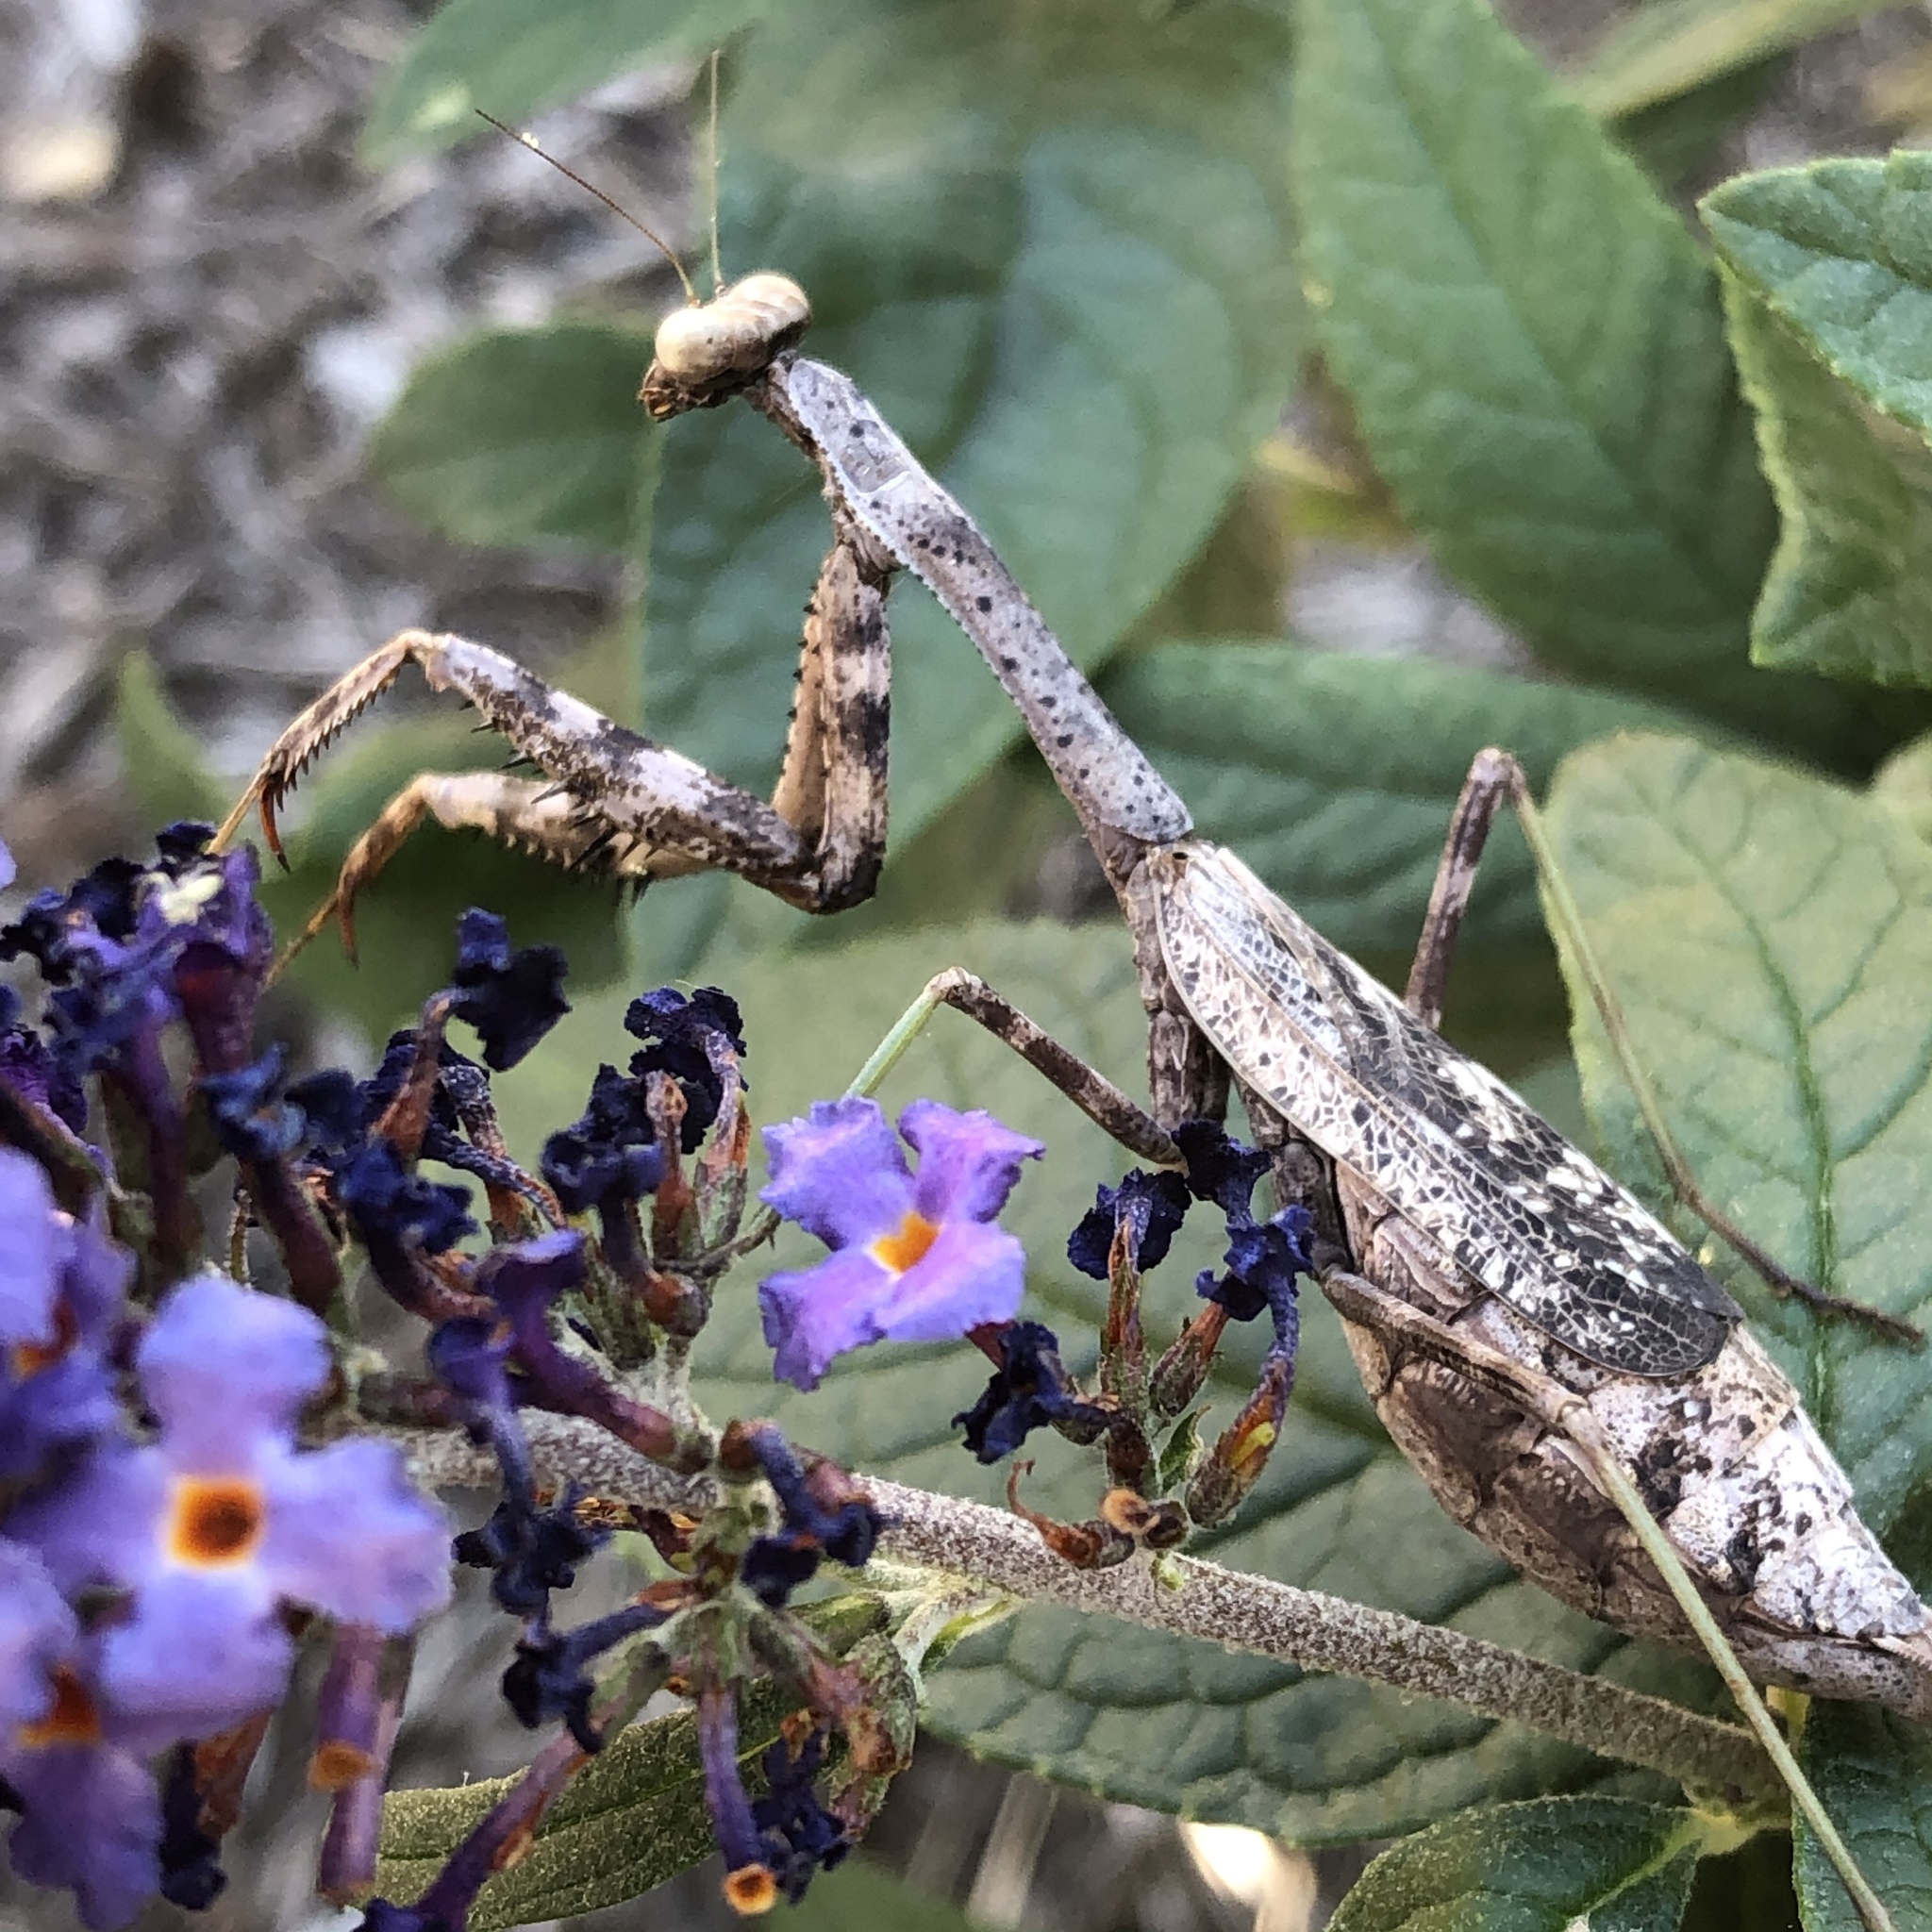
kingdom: Animalia
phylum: Arthropoda
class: Insecta
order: Mantodea
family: Mantidae
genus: Stagmomantis
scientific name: Stagmomantis carolina
